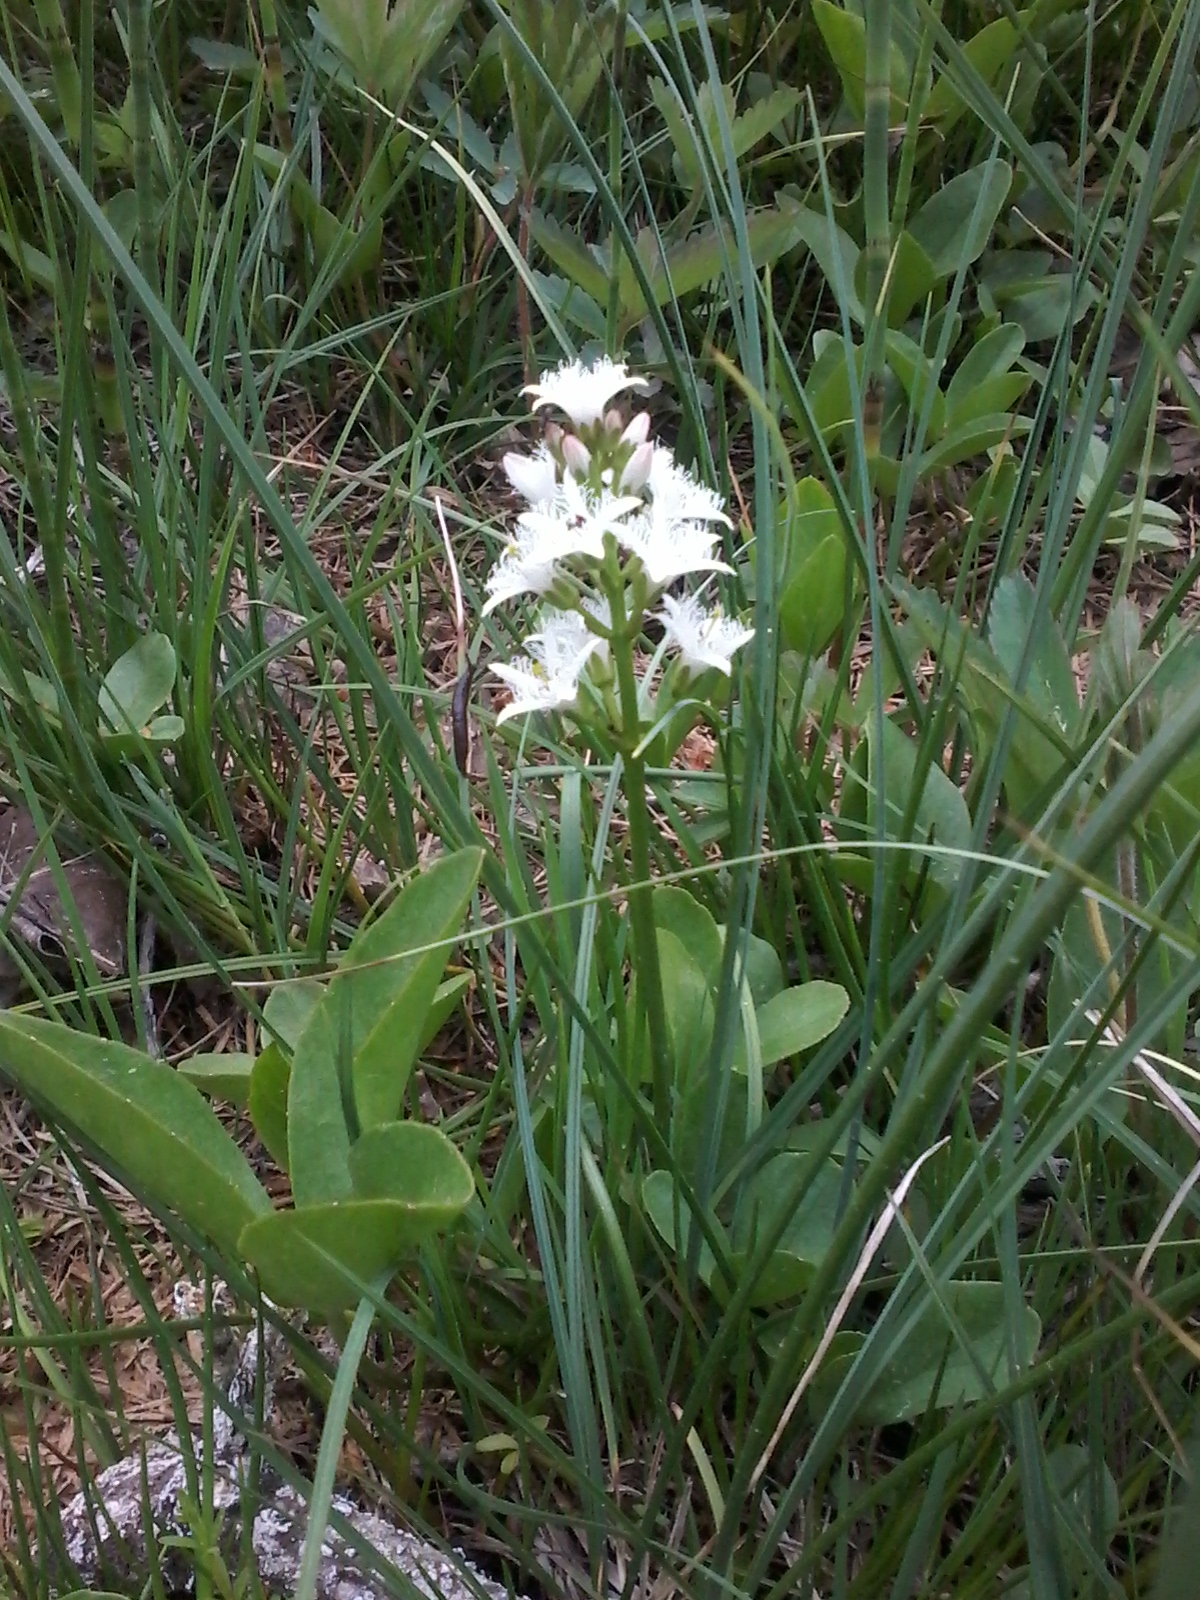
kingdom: Plantae
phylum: Tracheophyta
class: Magnoliopsida
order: Asterales
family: Menyanthaceae
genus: Menyanthes
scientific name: Menyanthes trifoliata
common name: Bogbean
